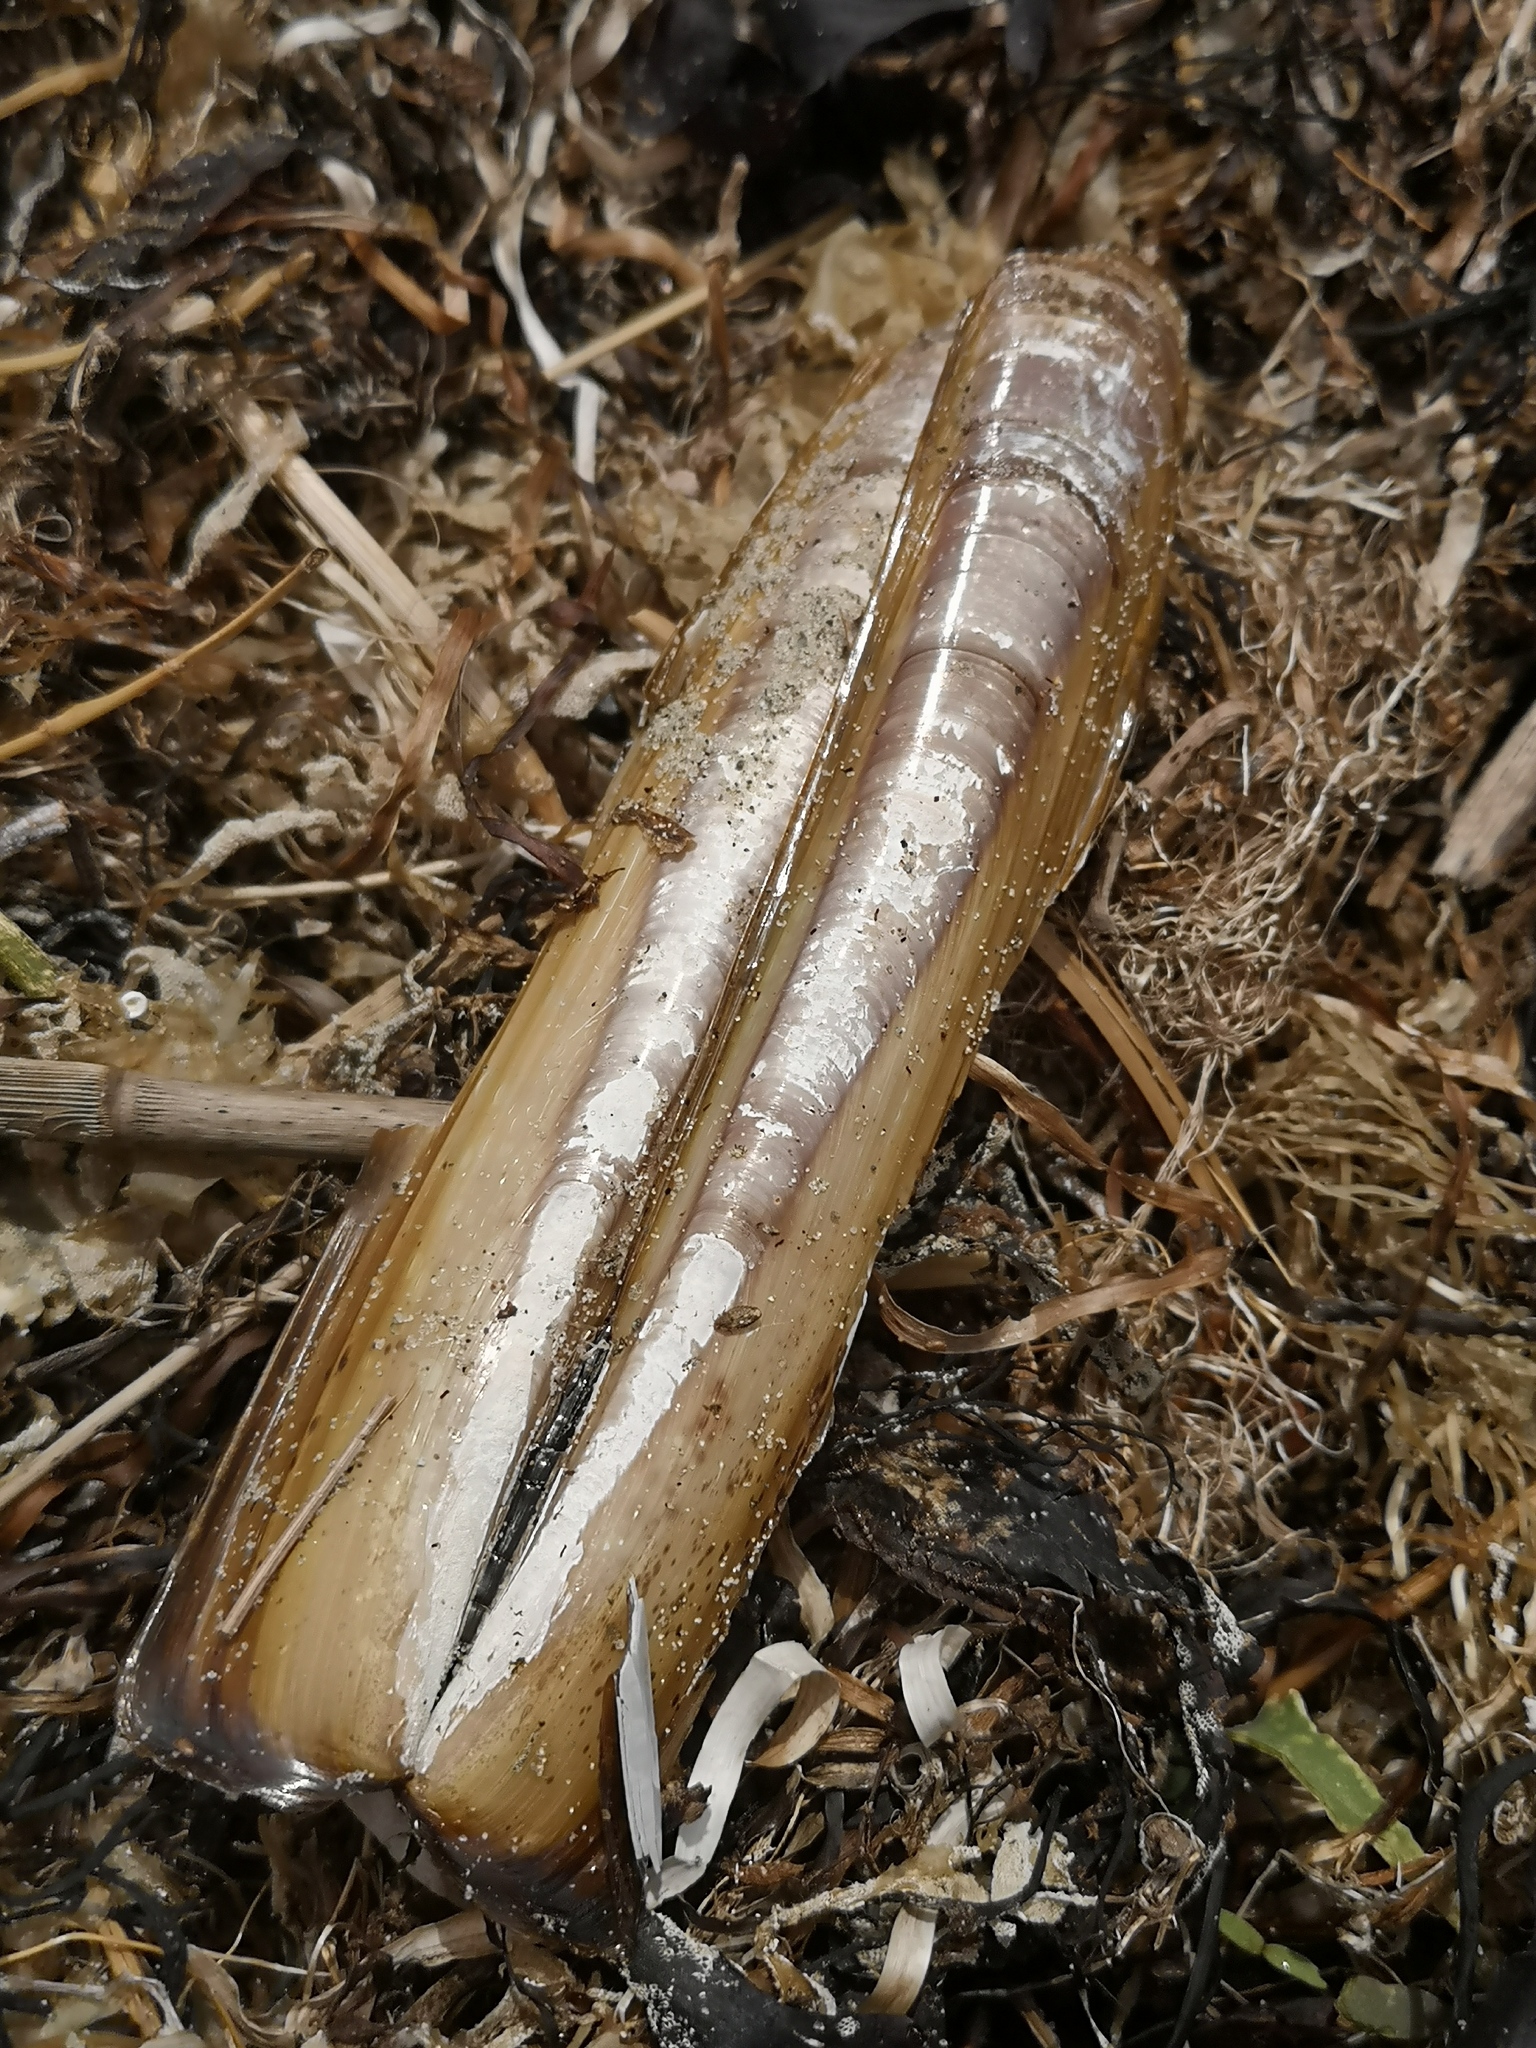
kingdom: Animalia
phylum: Mollusca
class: Bivalvia
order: Adapedonta
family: Pharidae
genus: Ensis
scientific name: Ensis leei
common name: American jack knife clam
